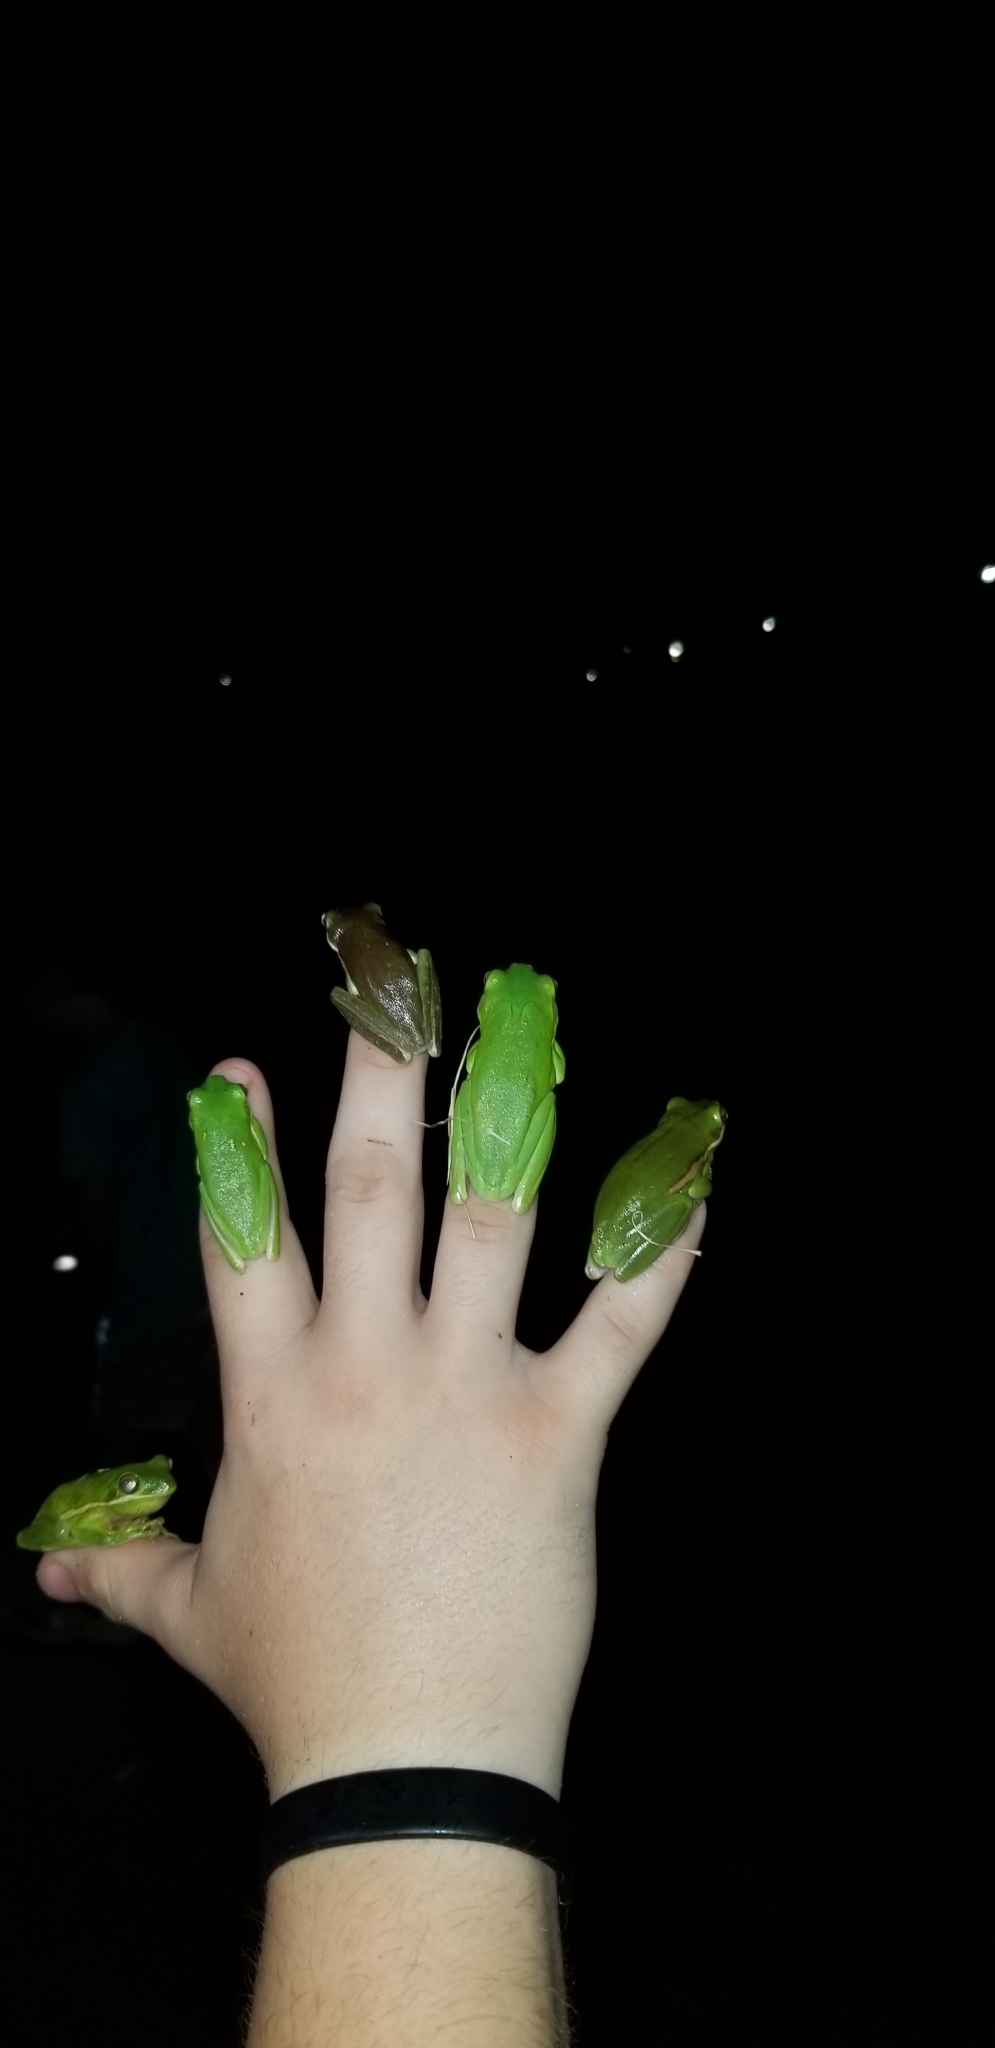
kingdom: Animalia
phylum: Chordata
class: Amphibia
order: Anura
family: Hylidae
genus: Dryophytes
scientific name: Dryophytes cinereus
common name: Green treefrog
